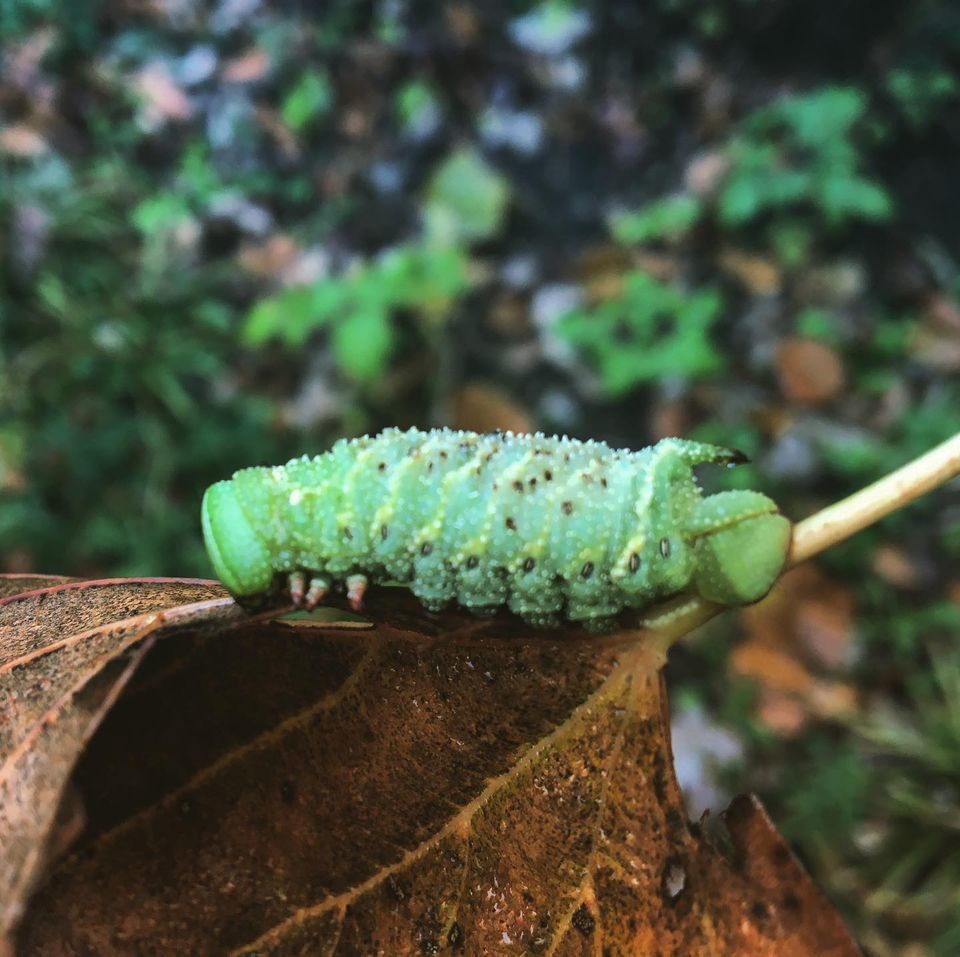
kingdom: Animalia
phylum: Arthropoda
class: Insecta
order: Lepidoptera
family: Sphingidae
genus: Paonias
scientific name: Paonias excaecata
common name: Blind-eyed sphinx
